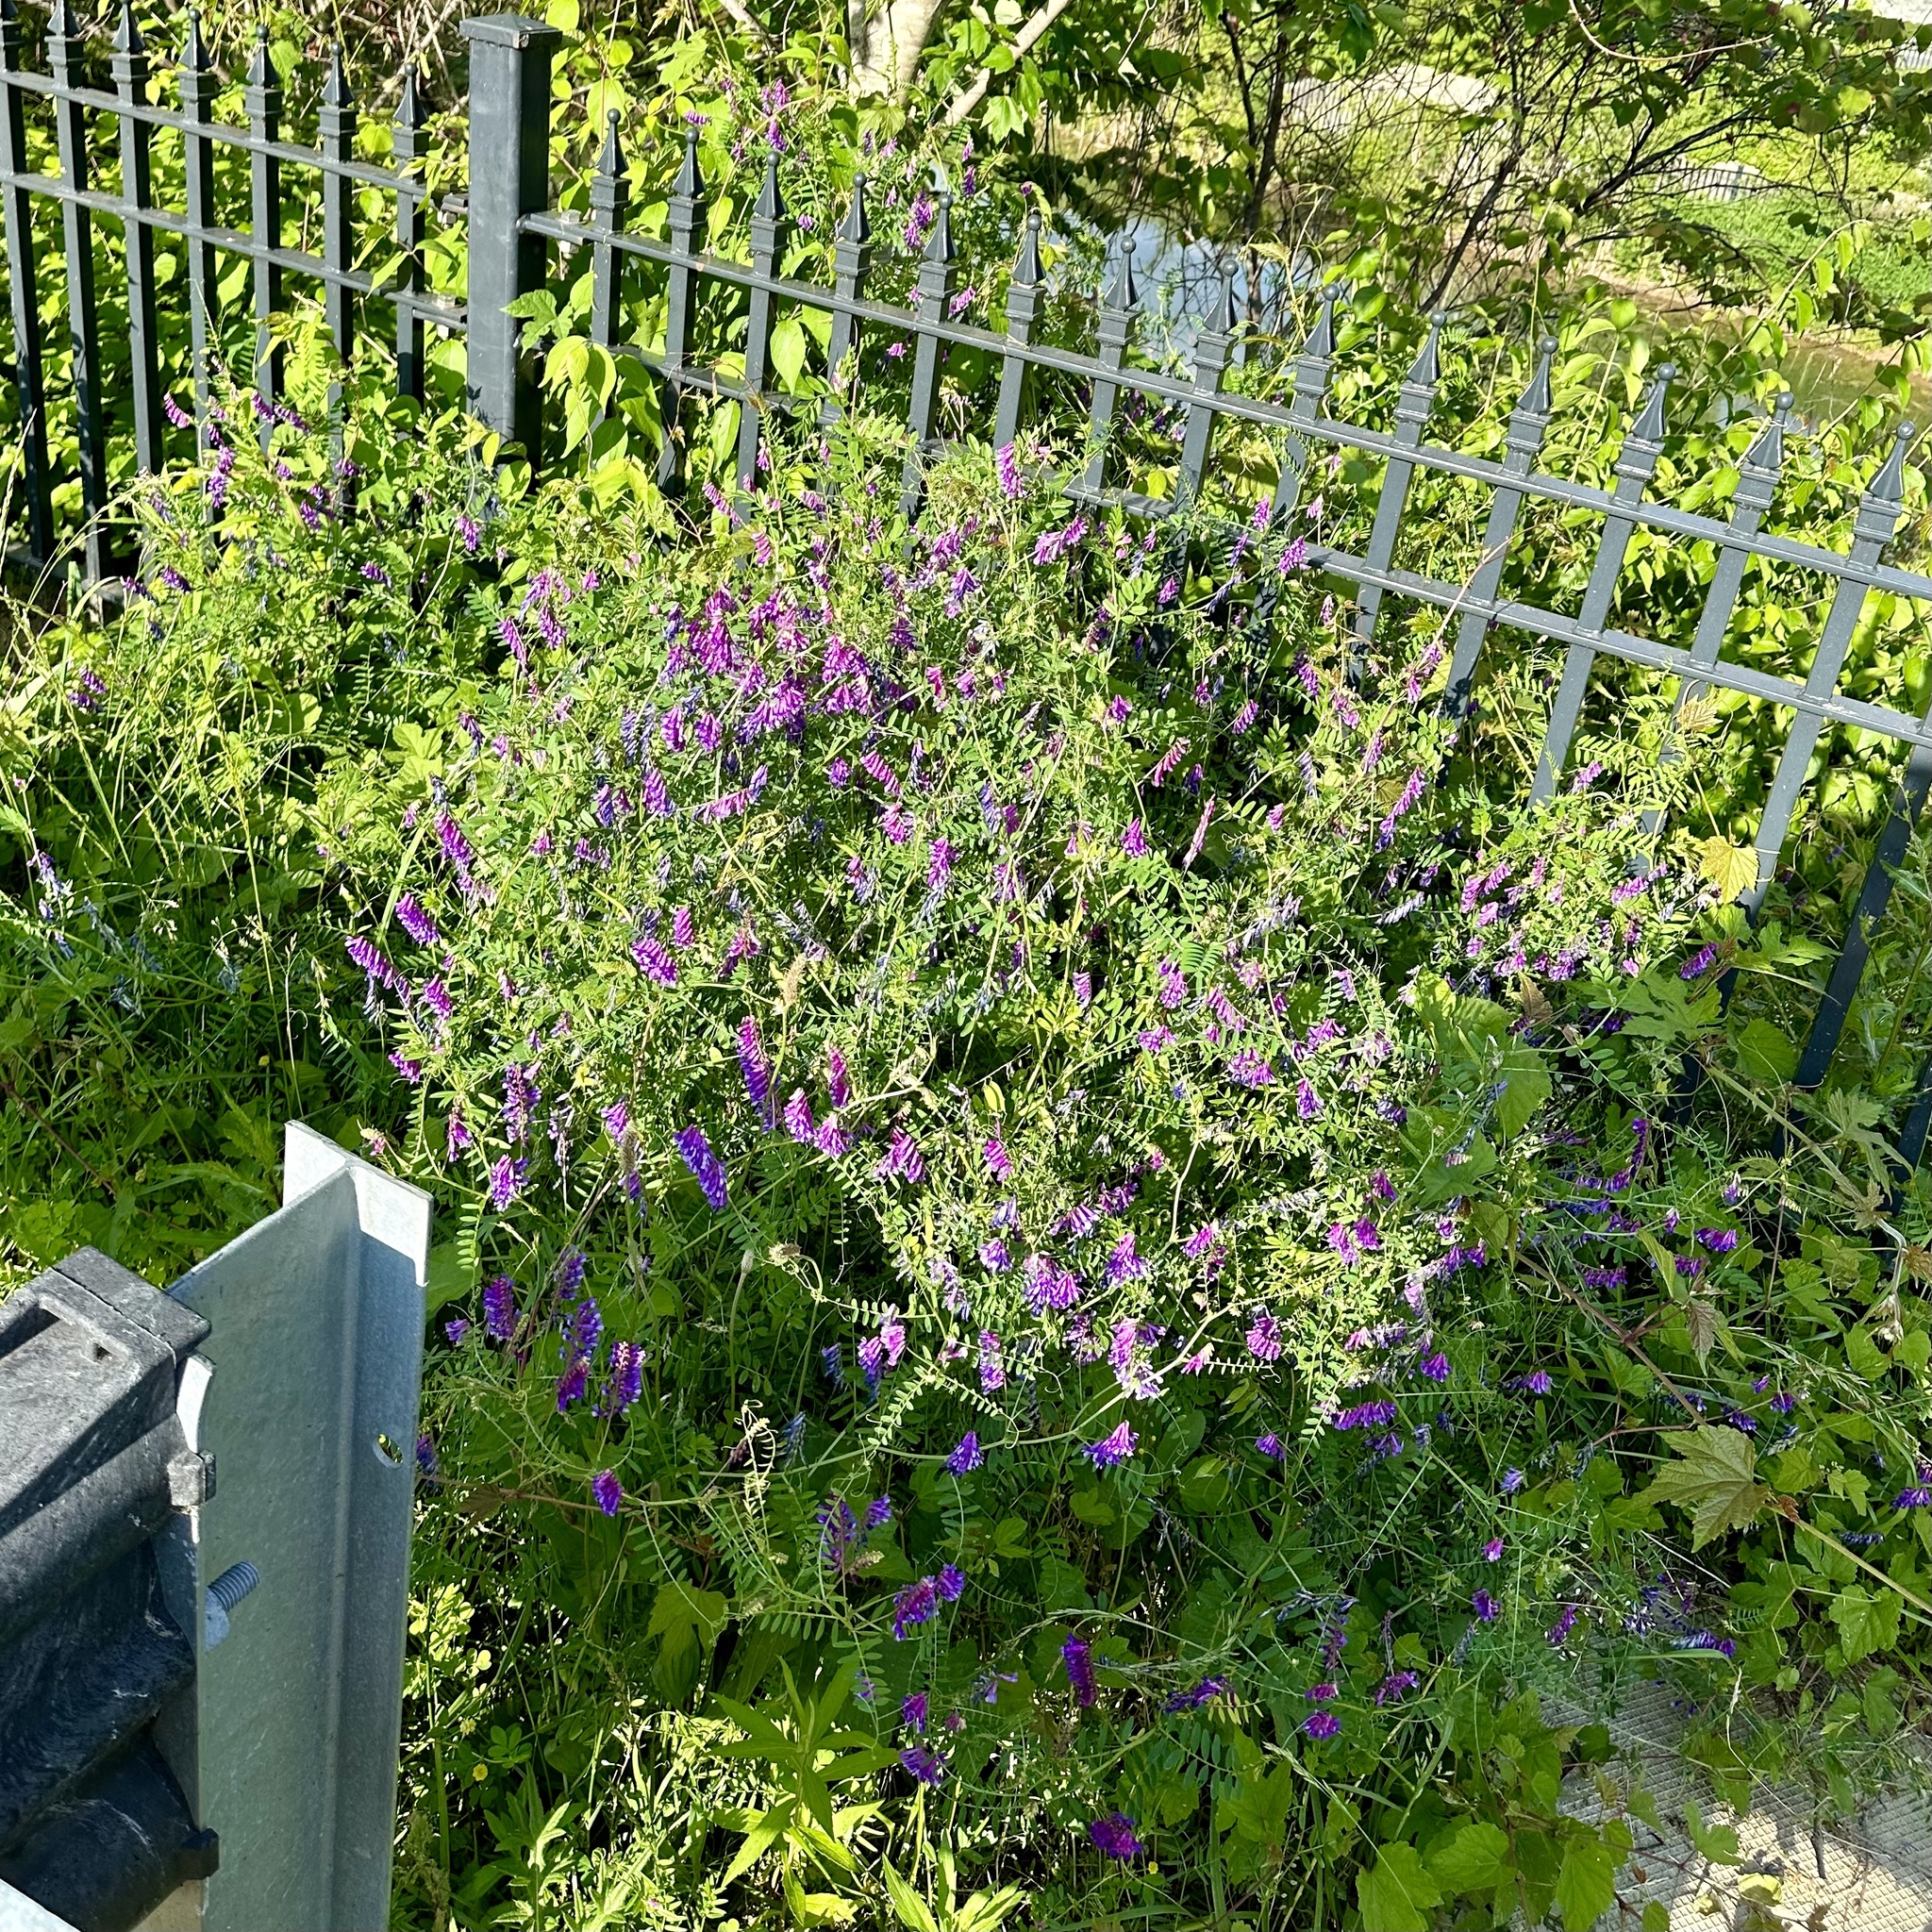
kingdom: Plantae
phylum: Tracheophyta
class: Magnoliopsida
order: Fabales
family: Fabaceae
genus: Vicia
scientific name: Vicia villosa
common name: Fodder vetch
